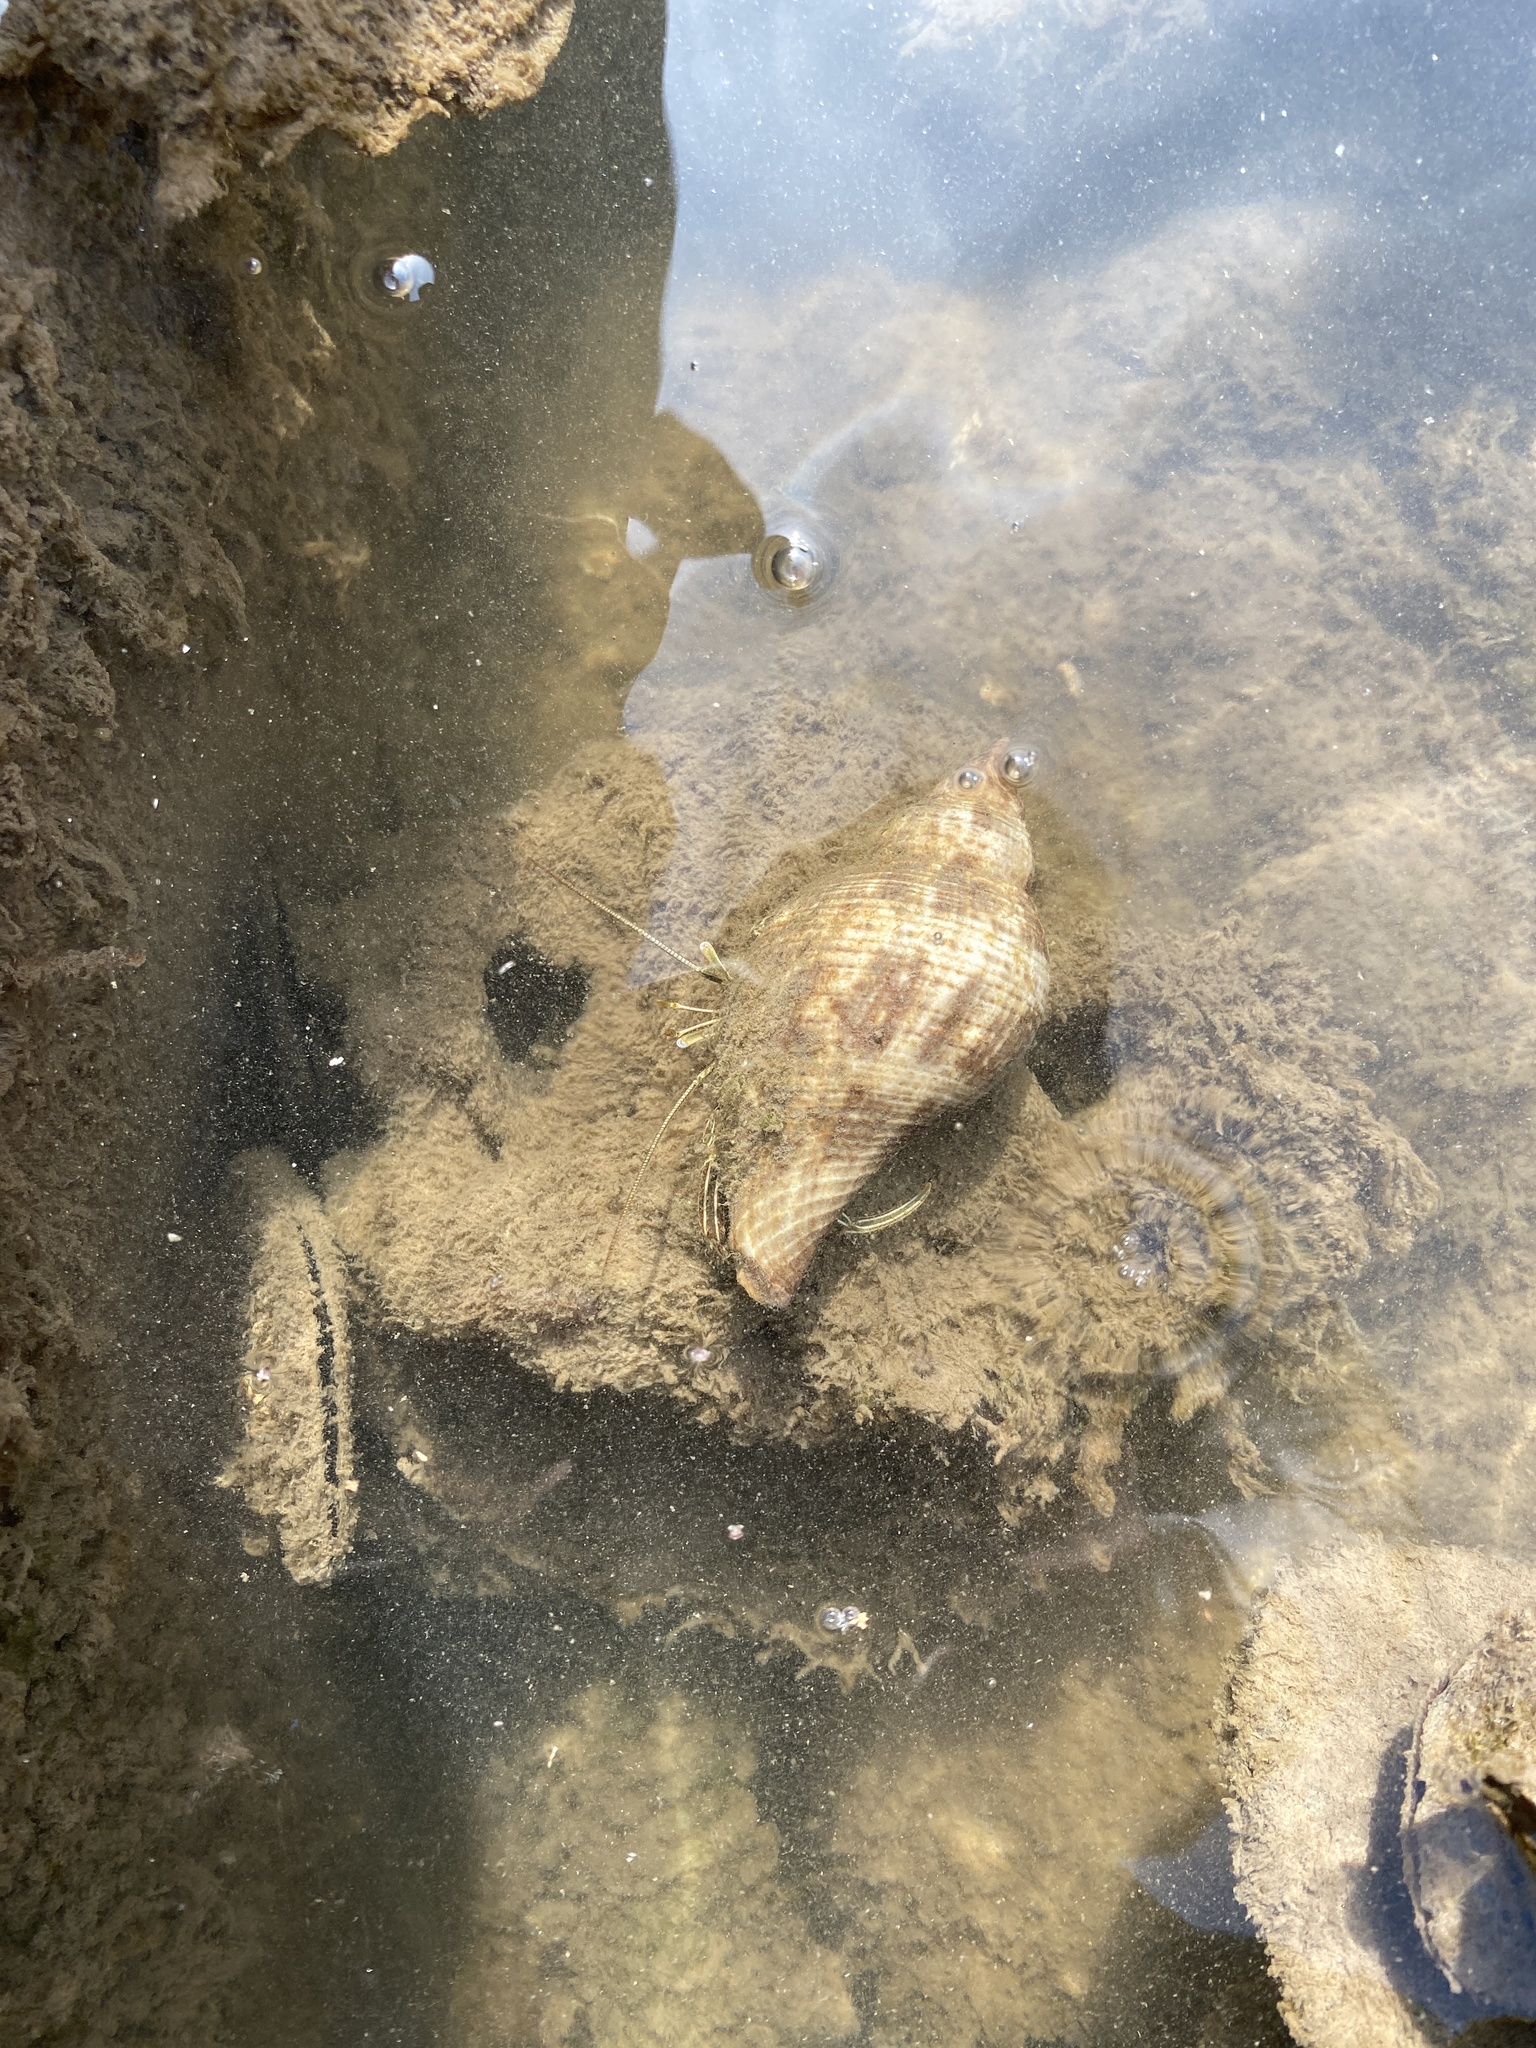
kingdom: Animalia
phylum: Arthropoda
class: Malacostraca
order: Decapoda
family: Diogenidae
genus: Clibanarius
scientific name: Clibanarius vittatus
